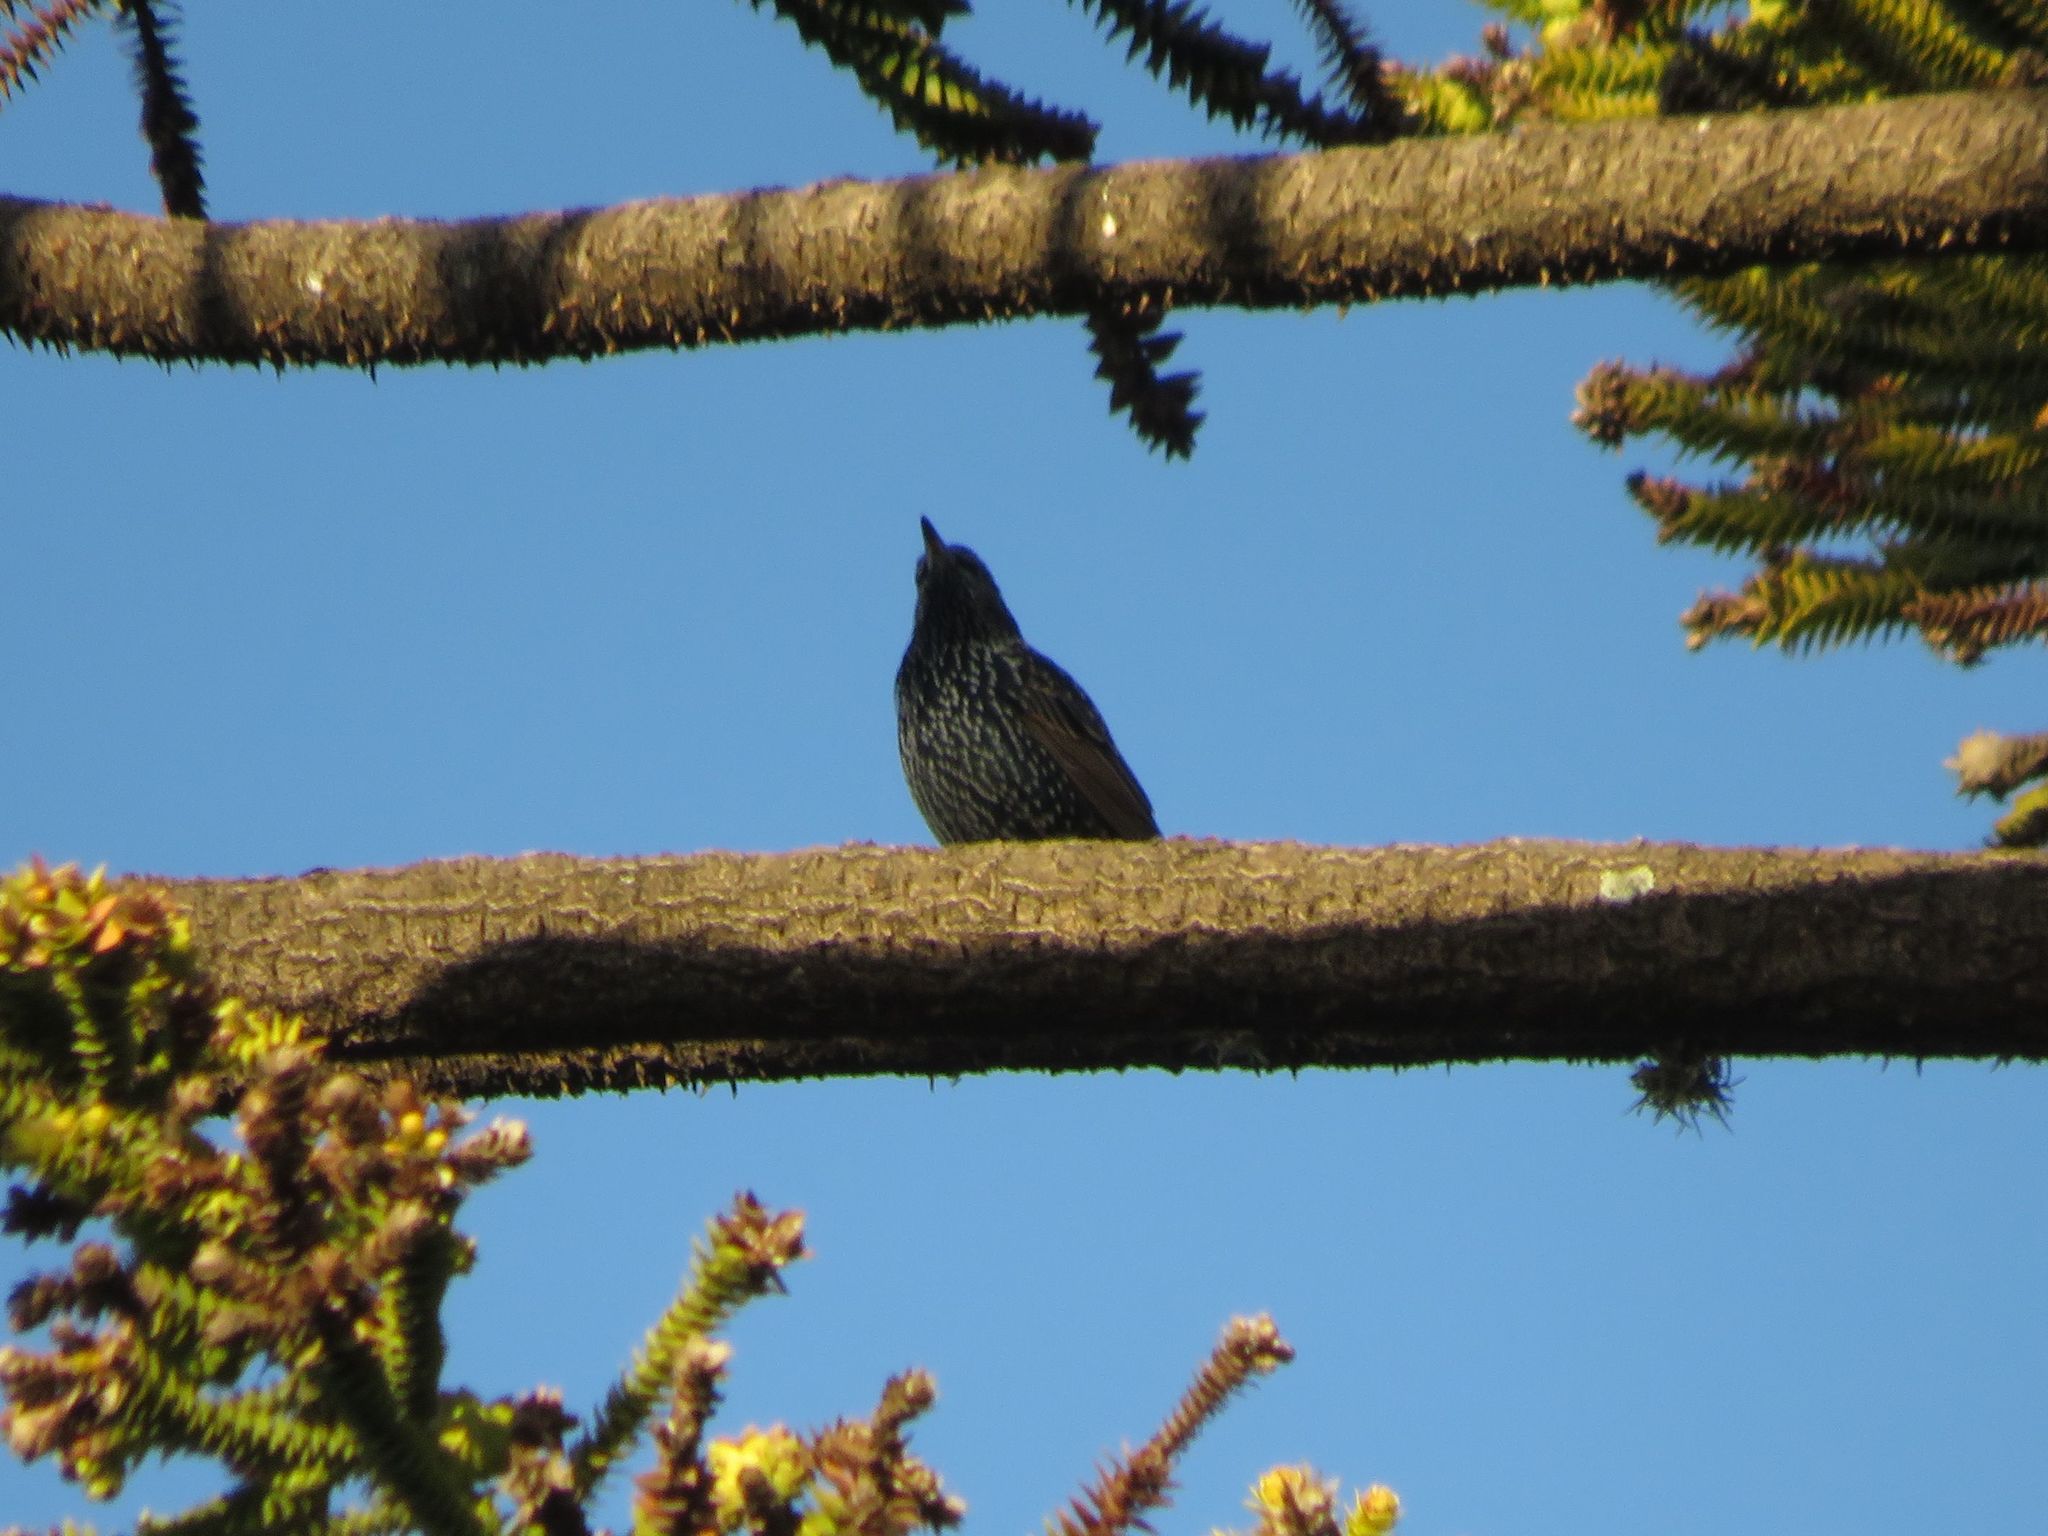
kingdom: Animalia
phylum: Chordata
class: Aves
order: Passeriformes
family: Sturnidae
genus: Sturnus
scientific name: Sturnus vulgaris
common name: Common starling
